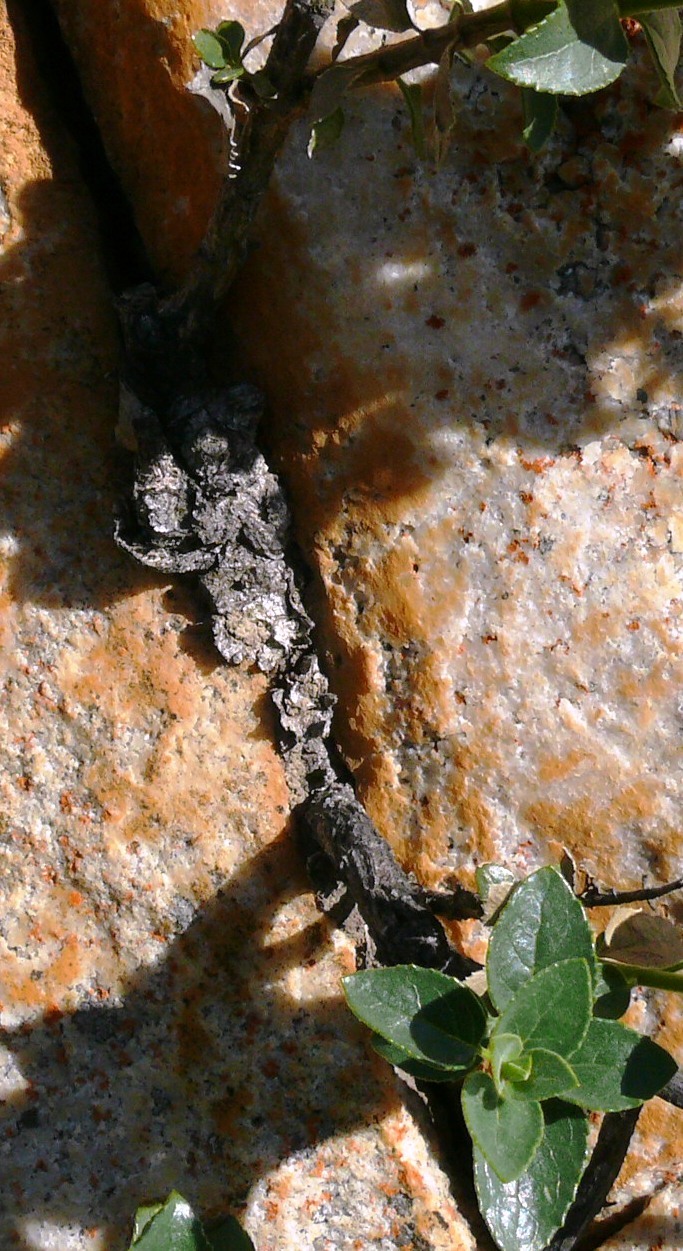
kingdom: Plantae
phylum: Tracheophyta
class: Magnoliopsida
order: Lamiales
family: Scrophulariaceae
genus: Teedia
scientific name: Teedia pubescens
